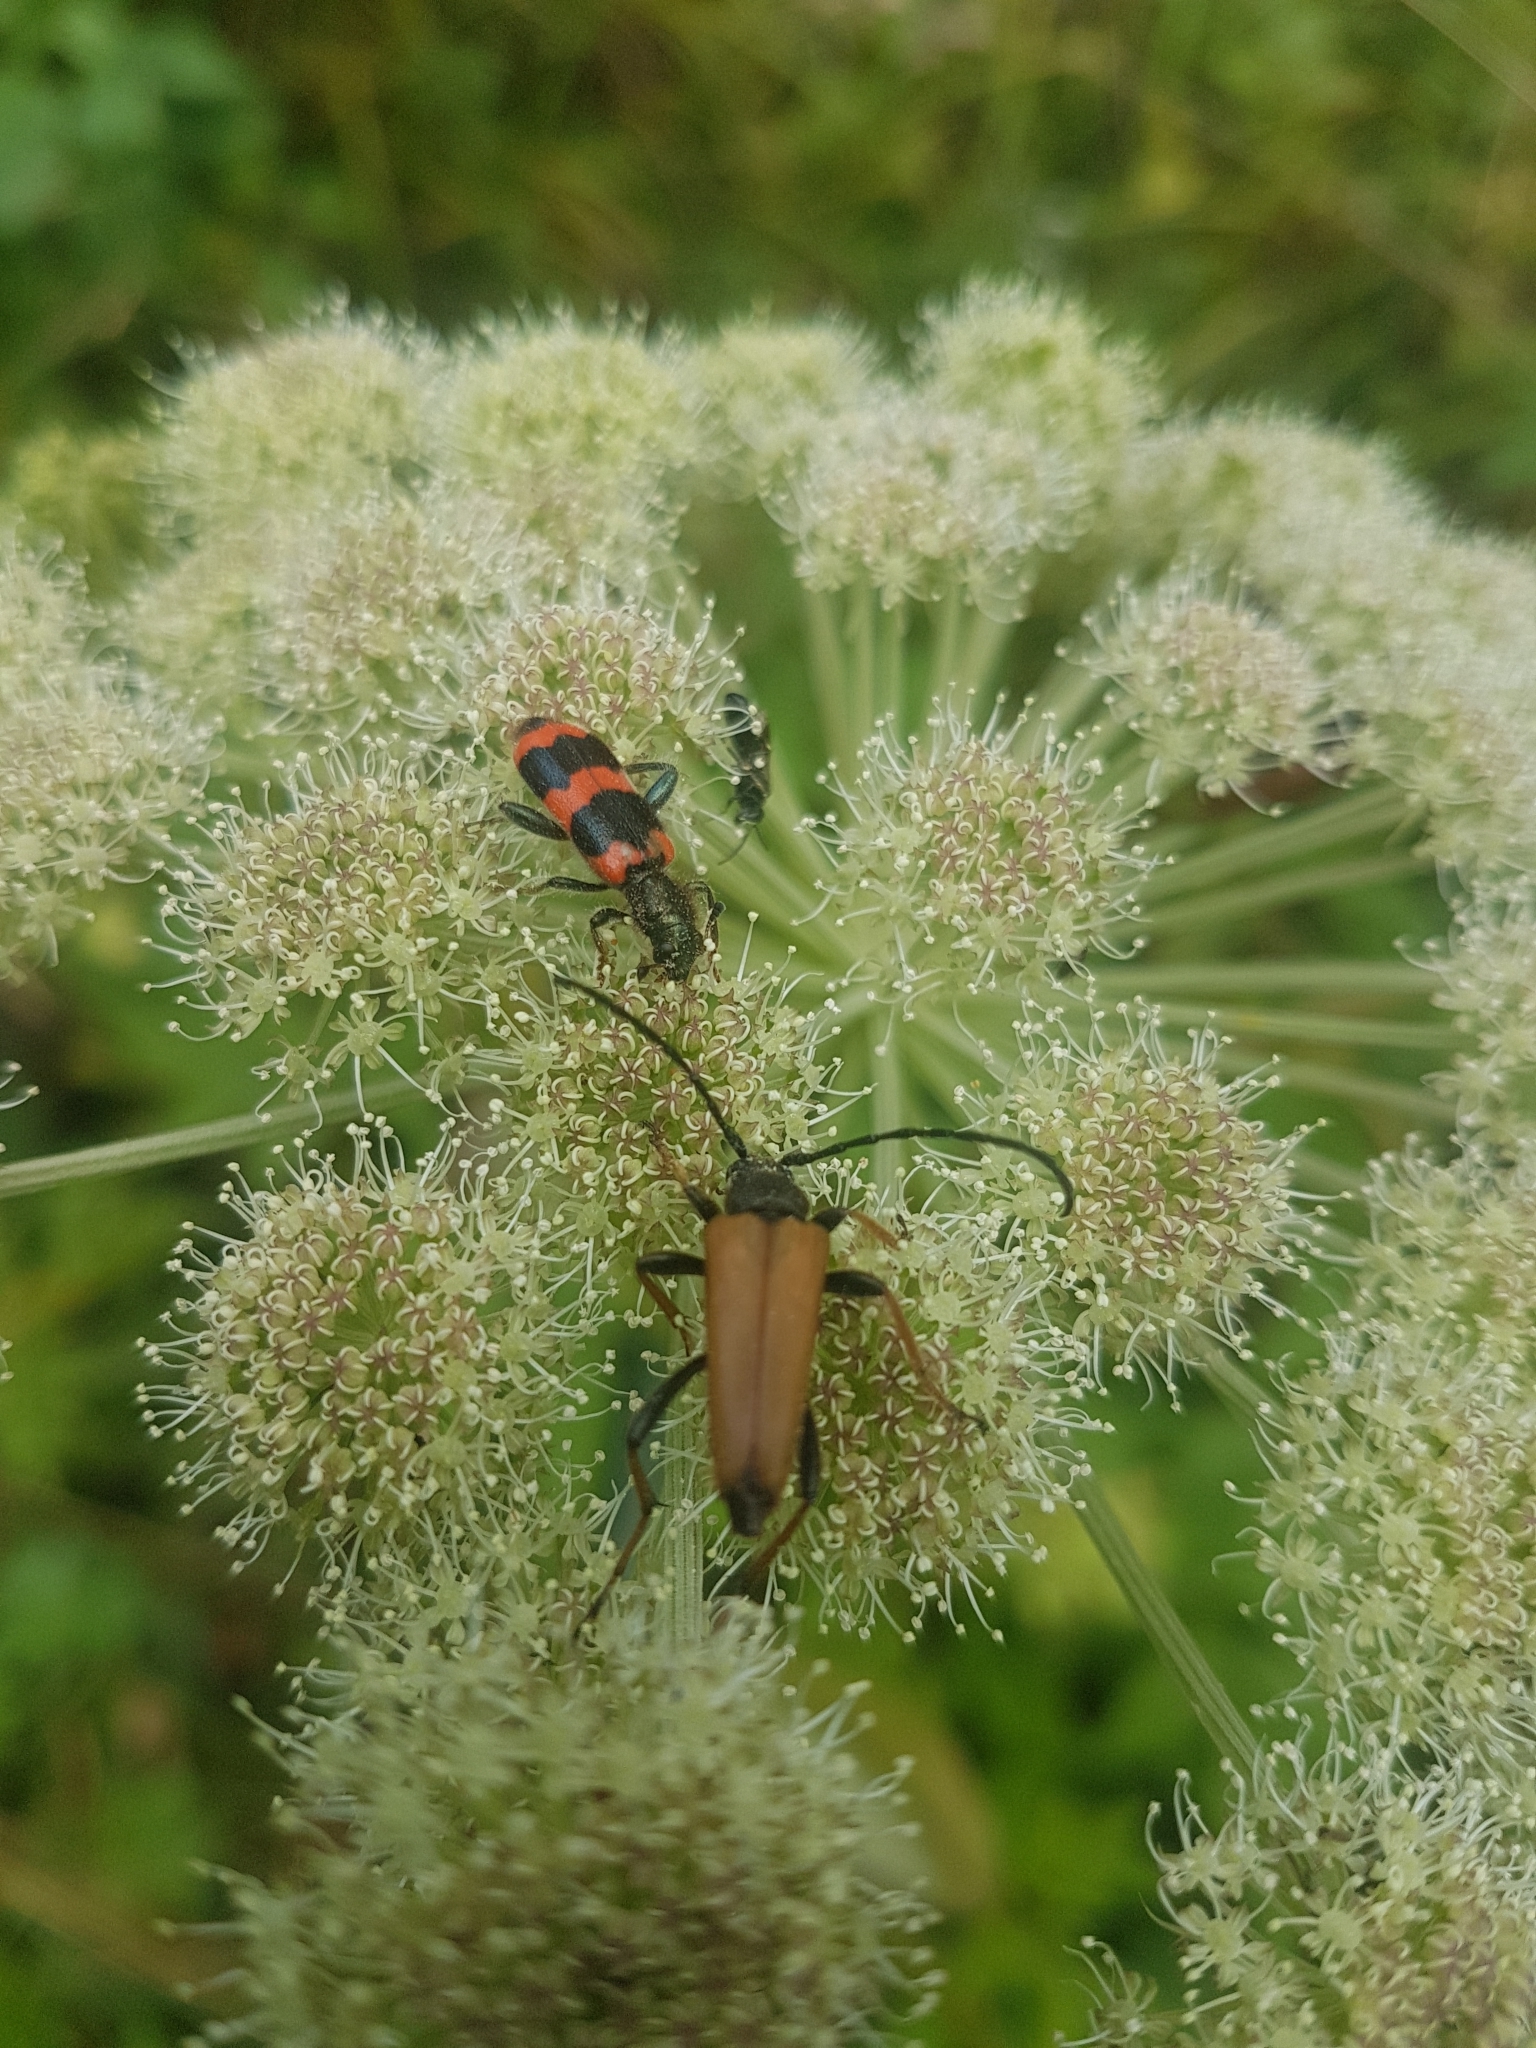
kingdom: Animalia
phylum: Arthropoda
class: Insecta
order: Coleoptera
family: Cerambycidae
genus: Stictoleptura
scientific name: Stictoleptura rubra
